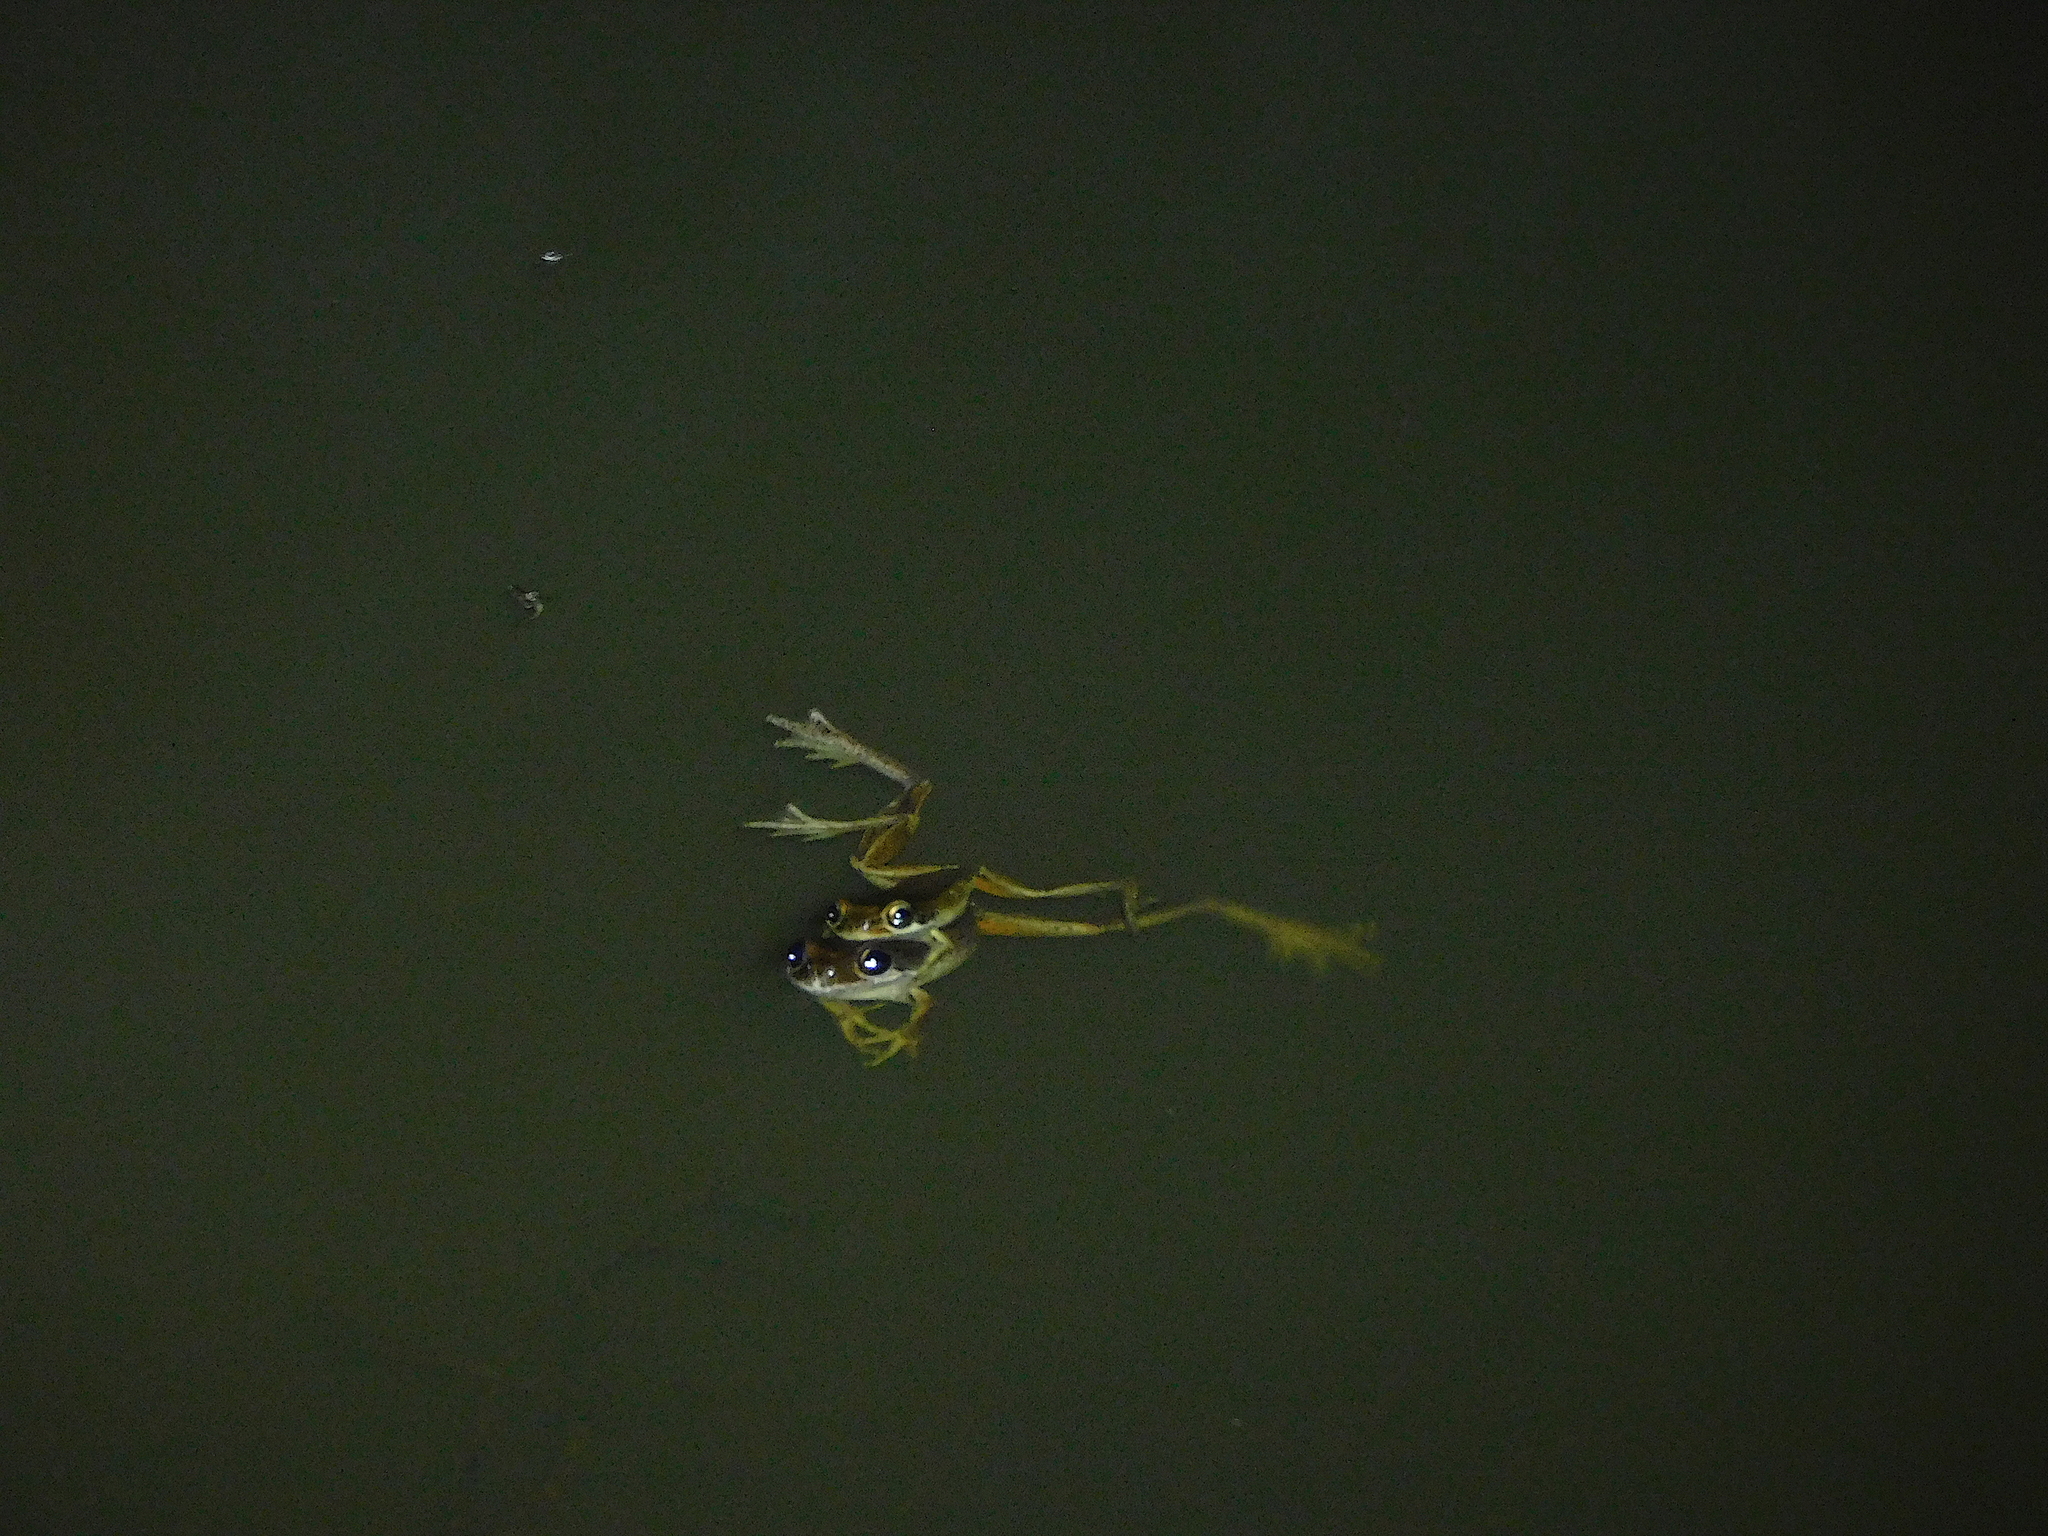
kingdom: Animalia
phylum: Chordata
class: Amphibia
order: Anura
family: Pelodryadidae
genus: Litoria
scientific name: Litoria ewingii
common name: Southern brown tree frog
